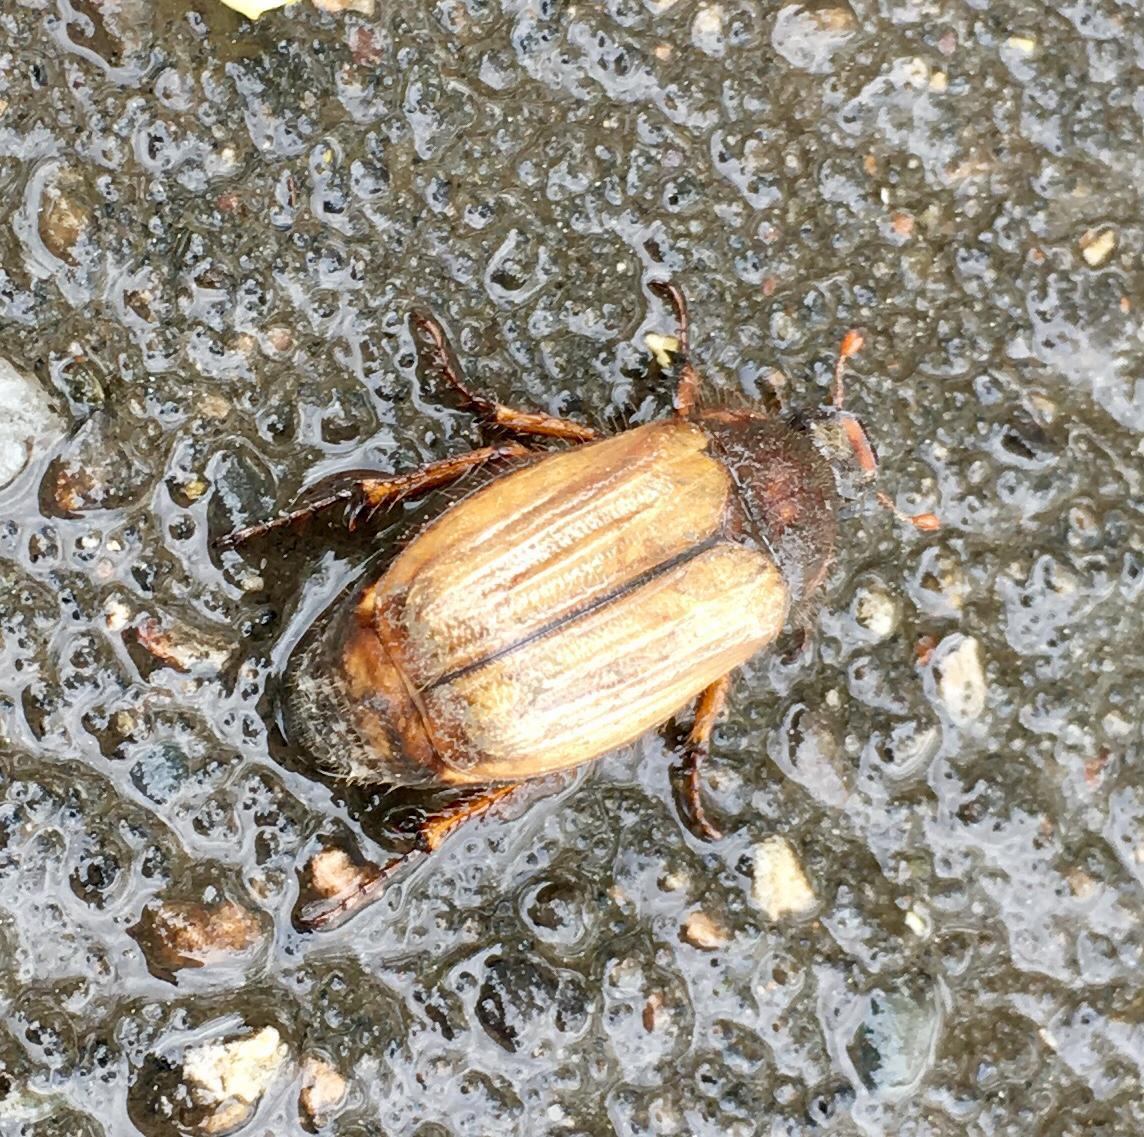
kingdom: Animalia
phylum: Arthropoda
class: Insecta
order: Coleoptera
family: Scarabaeidae
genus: Amphimallon
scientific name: Amphimallon solstitiale
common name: Summer chafer
